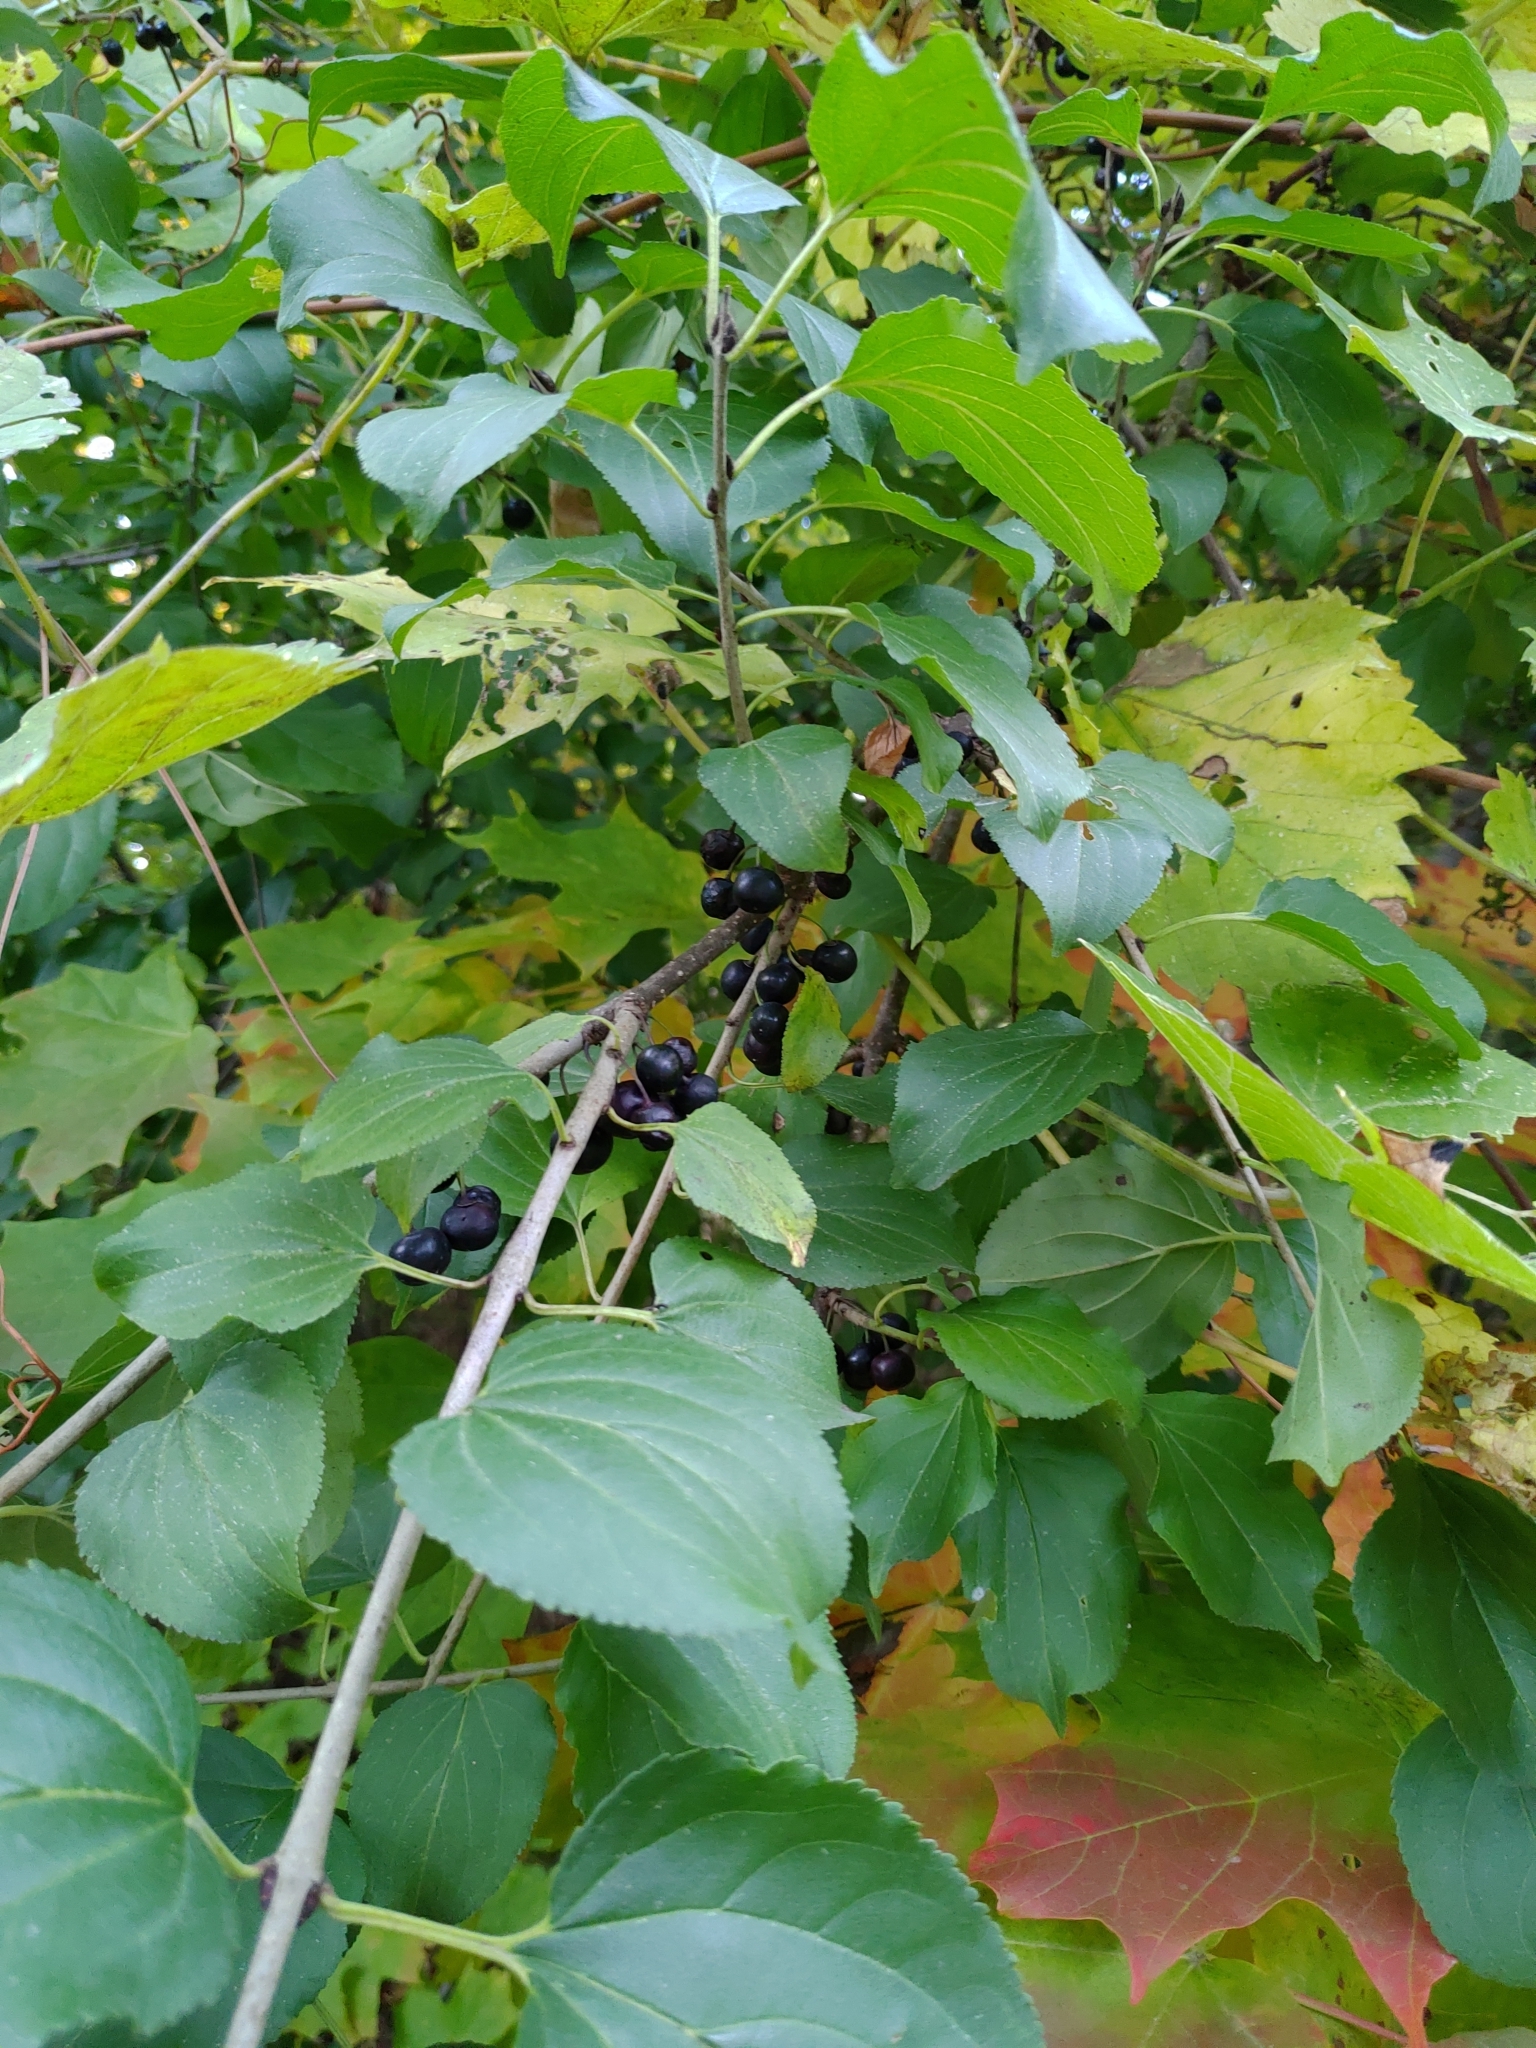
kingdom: Plantae
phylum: Tracheophyta
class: Magnoliopsida
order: Rosales
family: Rhamnaceae
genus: Rhamnus
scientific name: Rhamnus cathartica
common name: Common buckthorn
